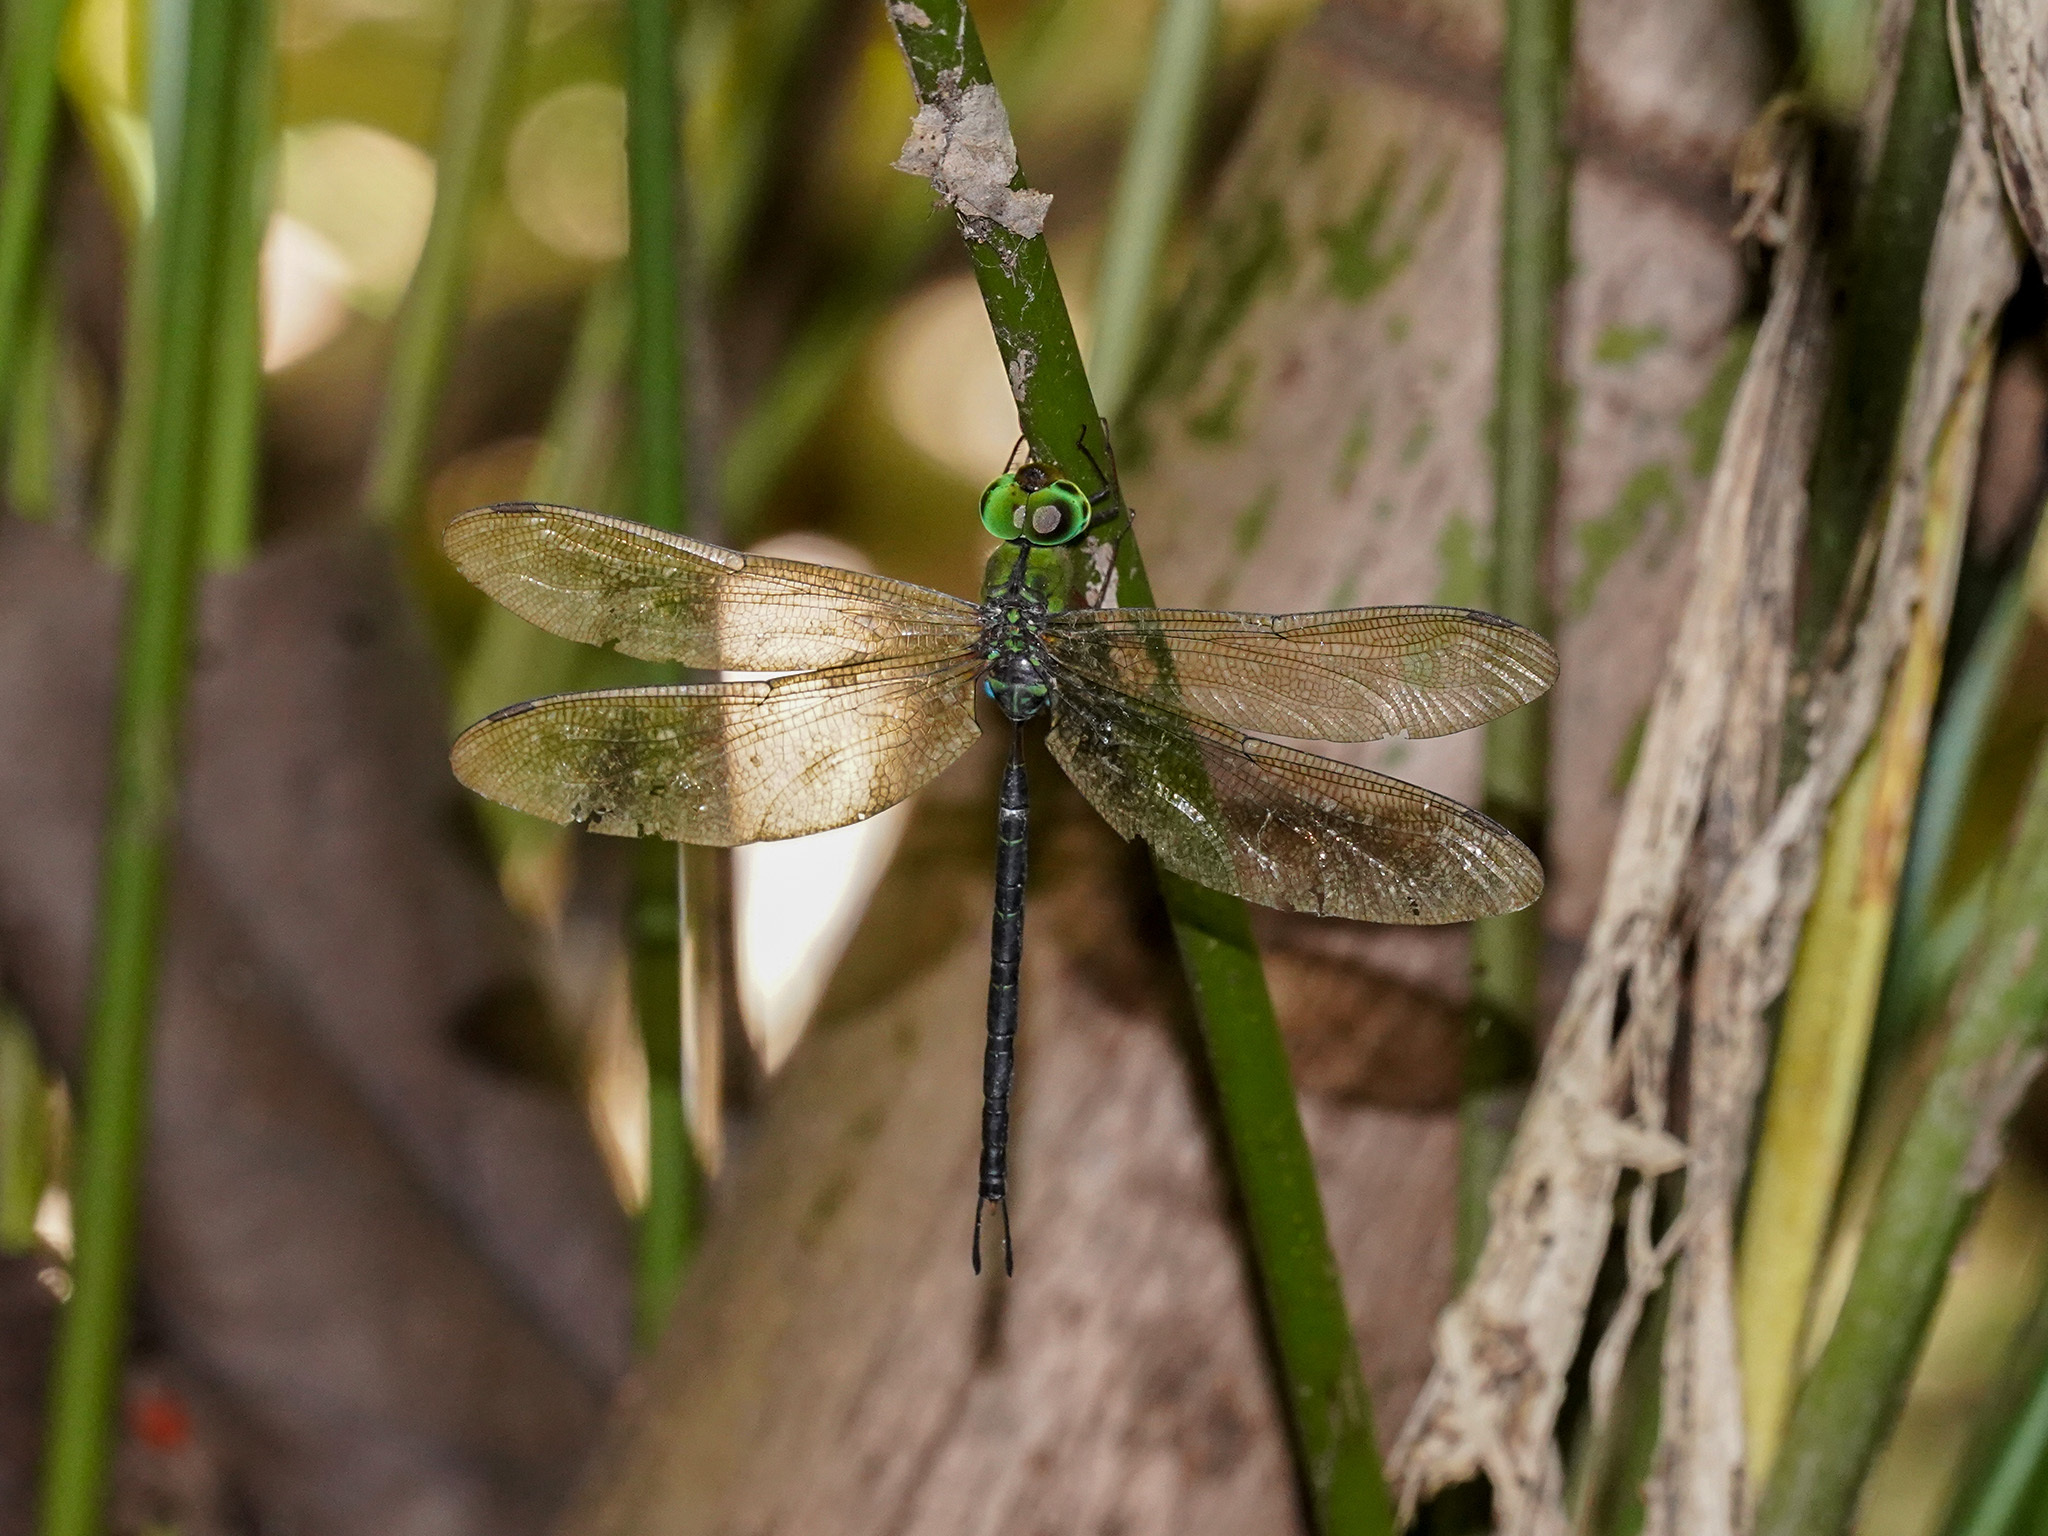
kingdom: Animalia
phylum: Arthropoda
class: Insecta
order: Odonata
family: Aeshnidae
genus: Gynacantha
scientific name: Gynacantha dohrni
